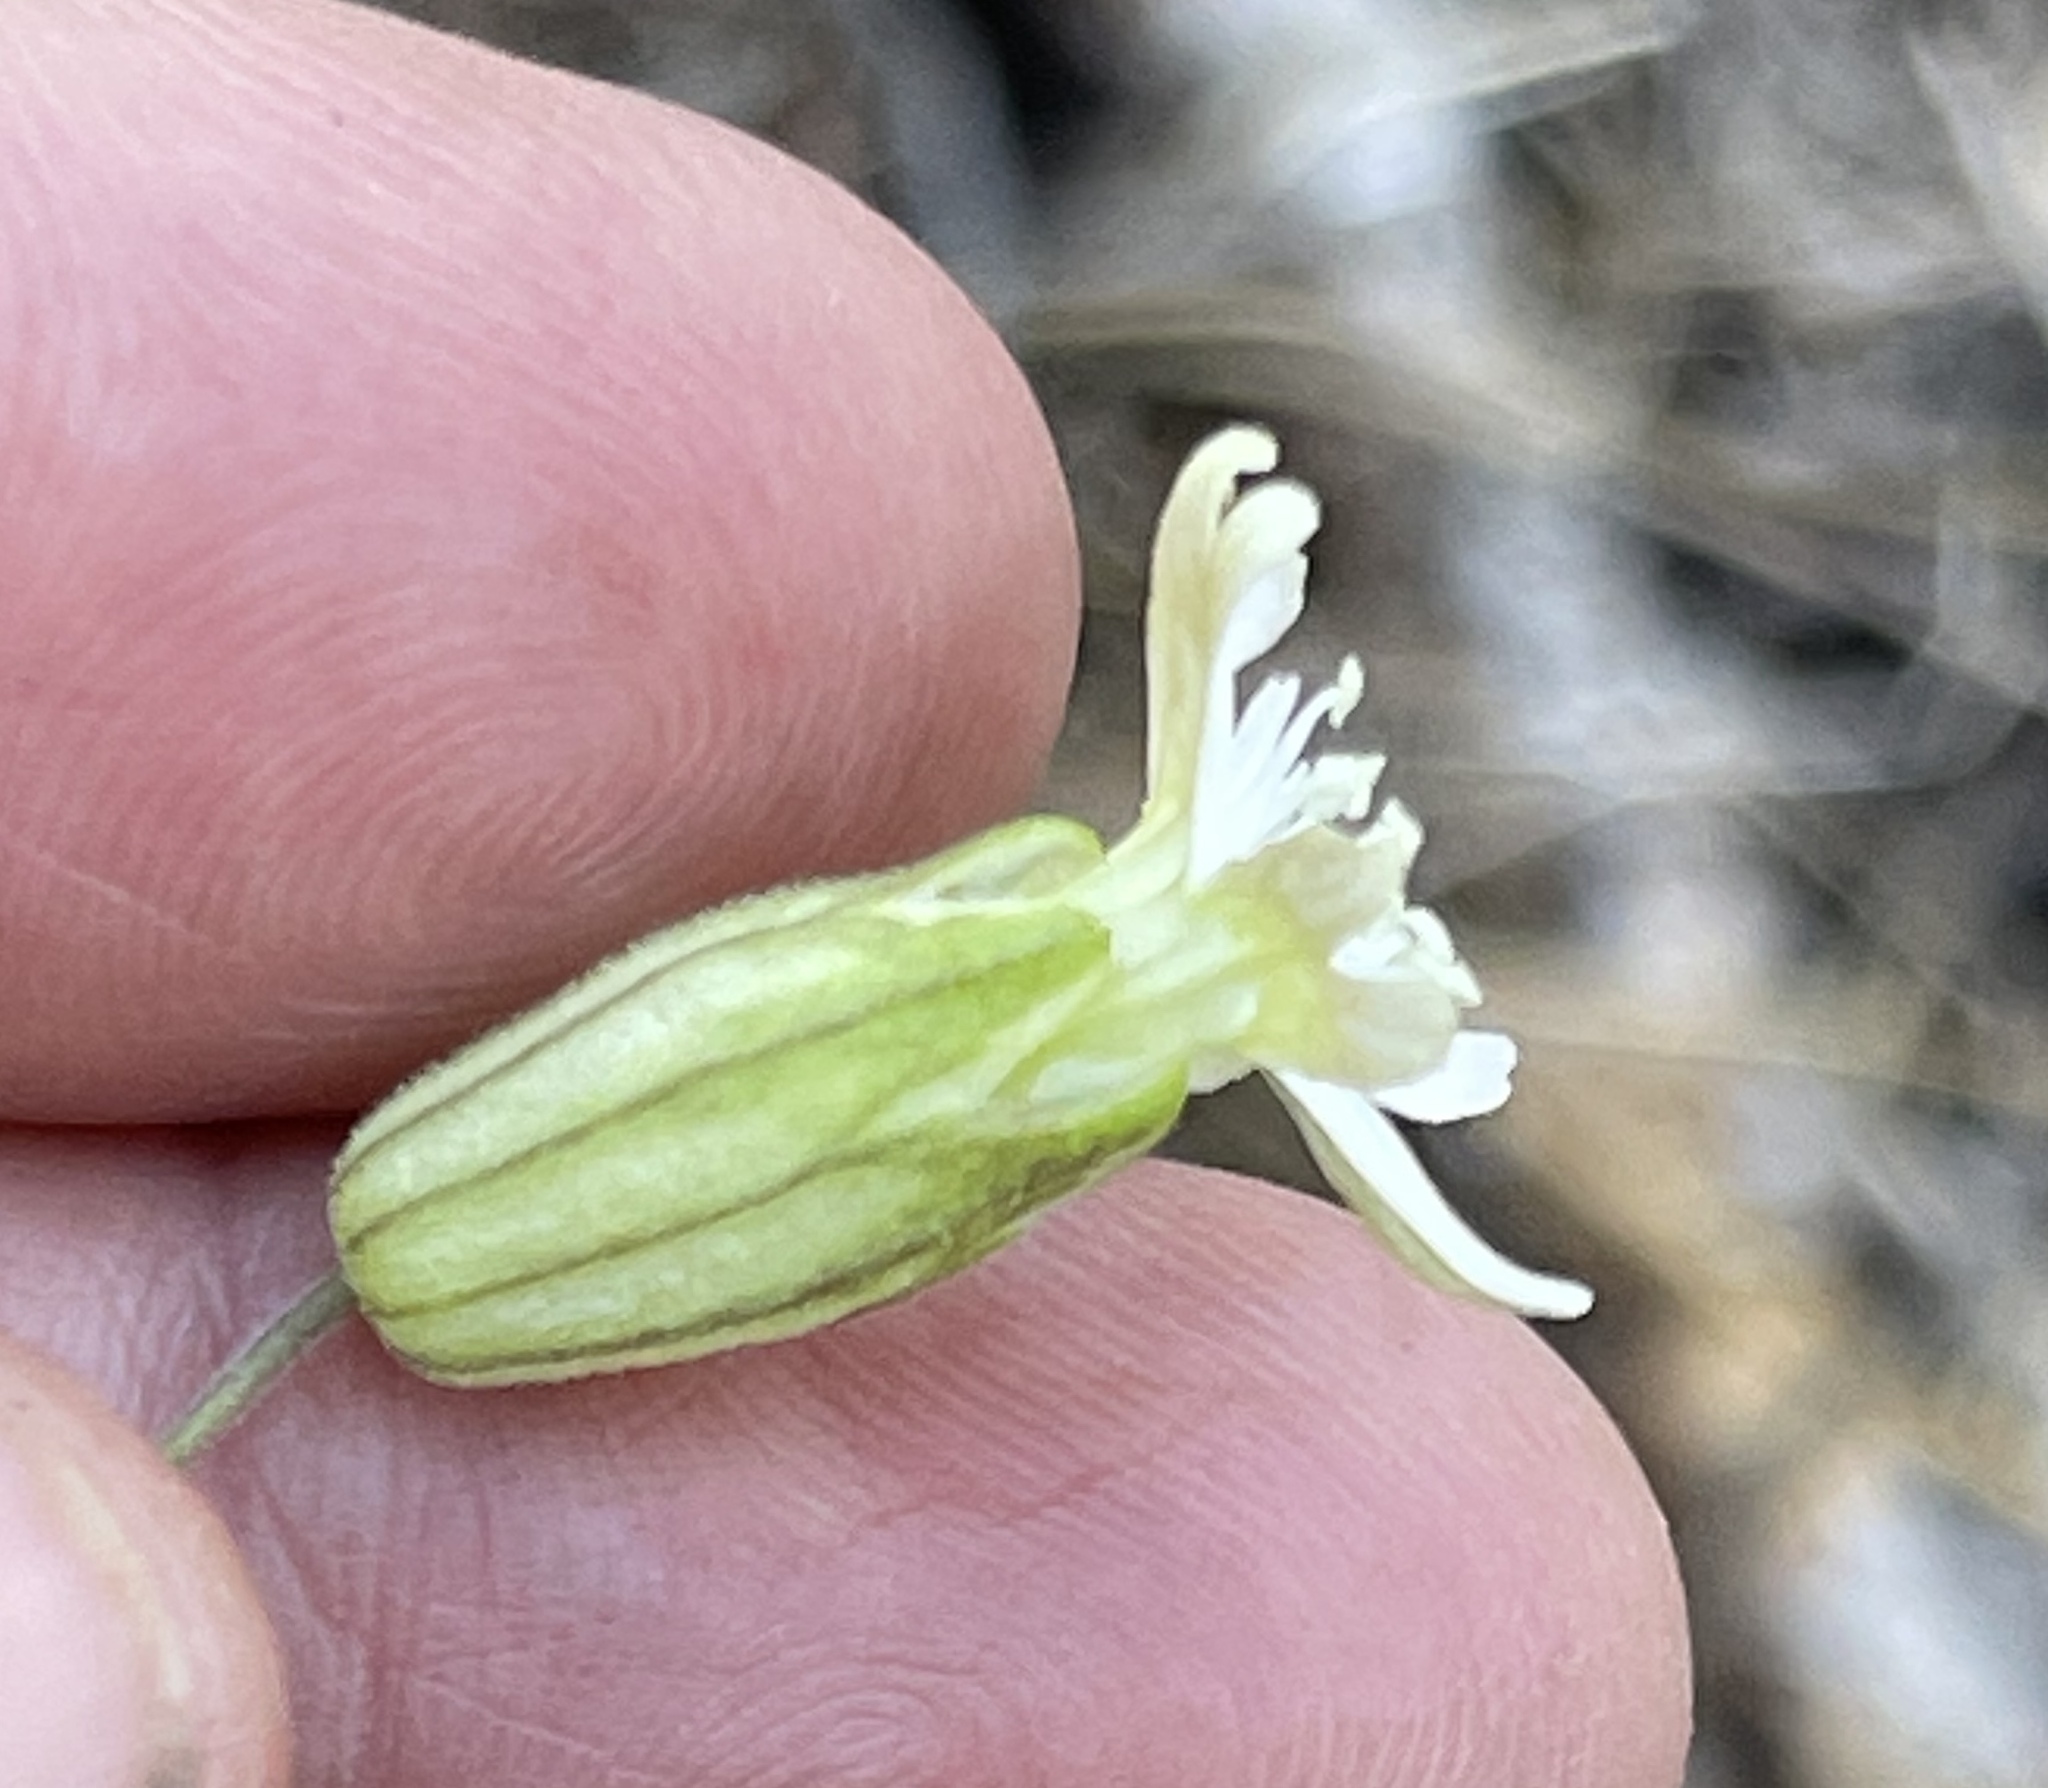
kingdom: Plantae
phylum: Tracheophyta
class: Magnoliopsida
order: Caryophyllales
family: Caryophyllaceae
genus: Silene
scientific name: Silene douglasii
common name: Douglas's catchfly
